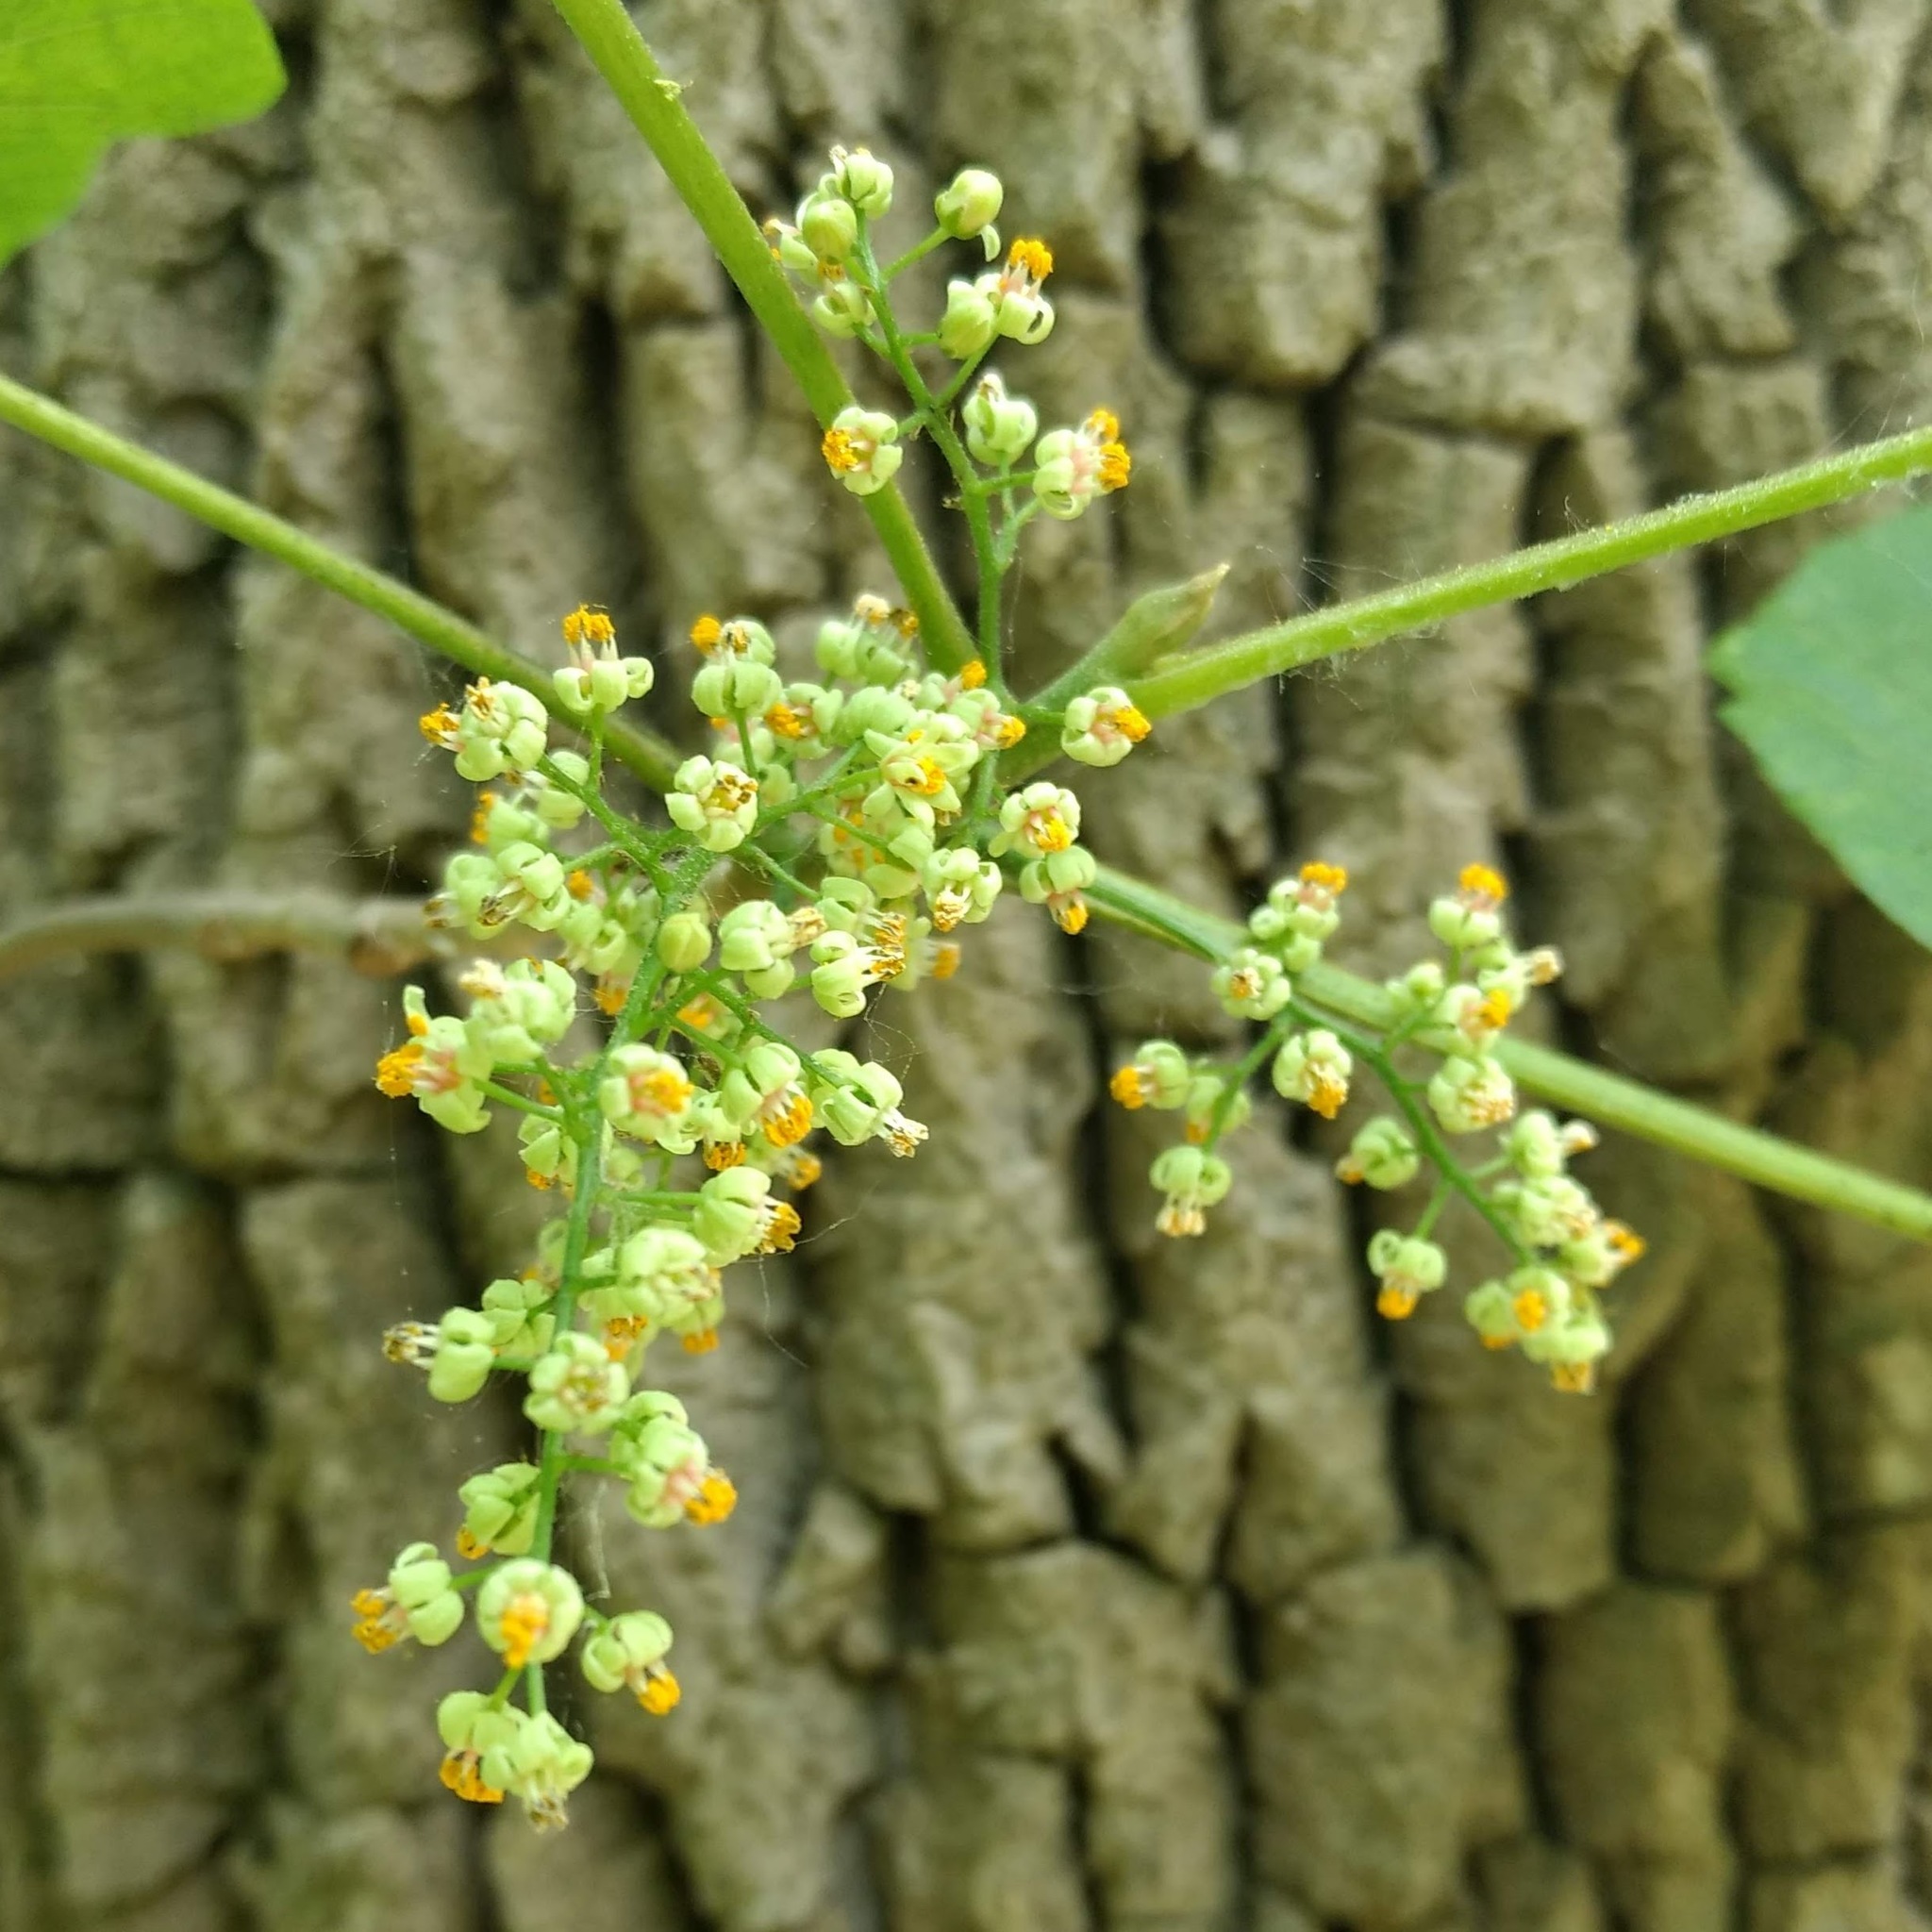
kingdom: Plantae
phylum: Tracheophyta
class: Magnoliopsida
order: Sapindales
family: Anacardiaceae
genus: Toxicodendron
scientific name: Toxicodendron radicans
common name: Poison ivy
